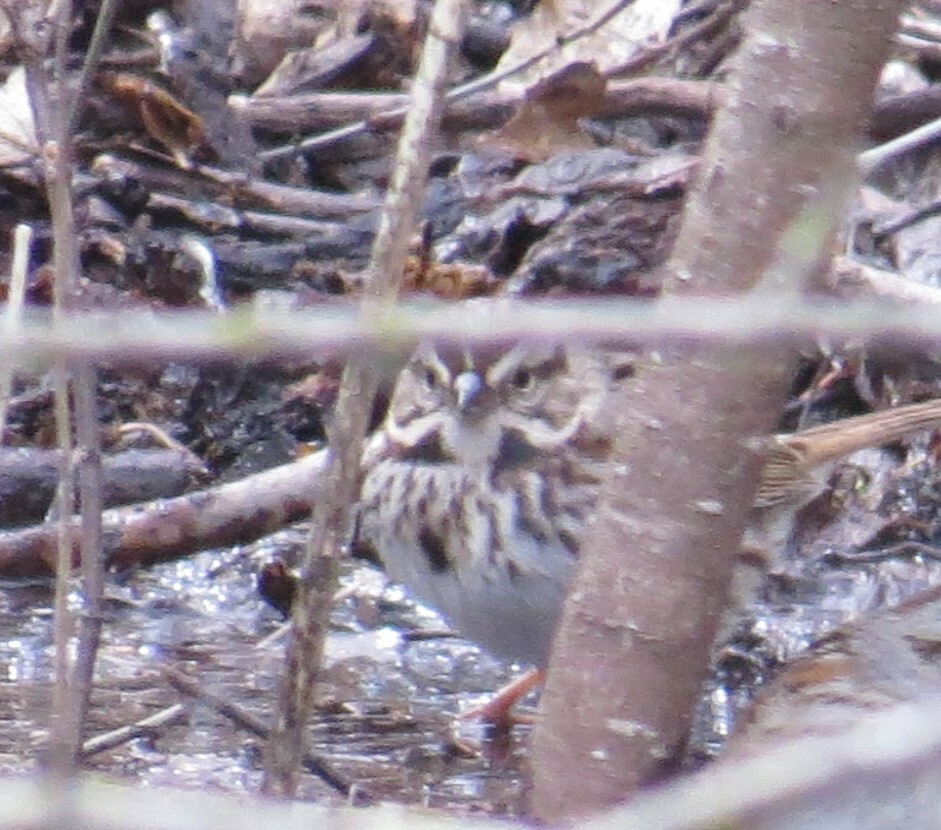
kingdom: Animalia
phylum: Chordata
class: Aves
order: Passeriformes
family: Passerellidae
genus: Melospiza
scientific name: Melospiza melodia
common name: Song sparrow
